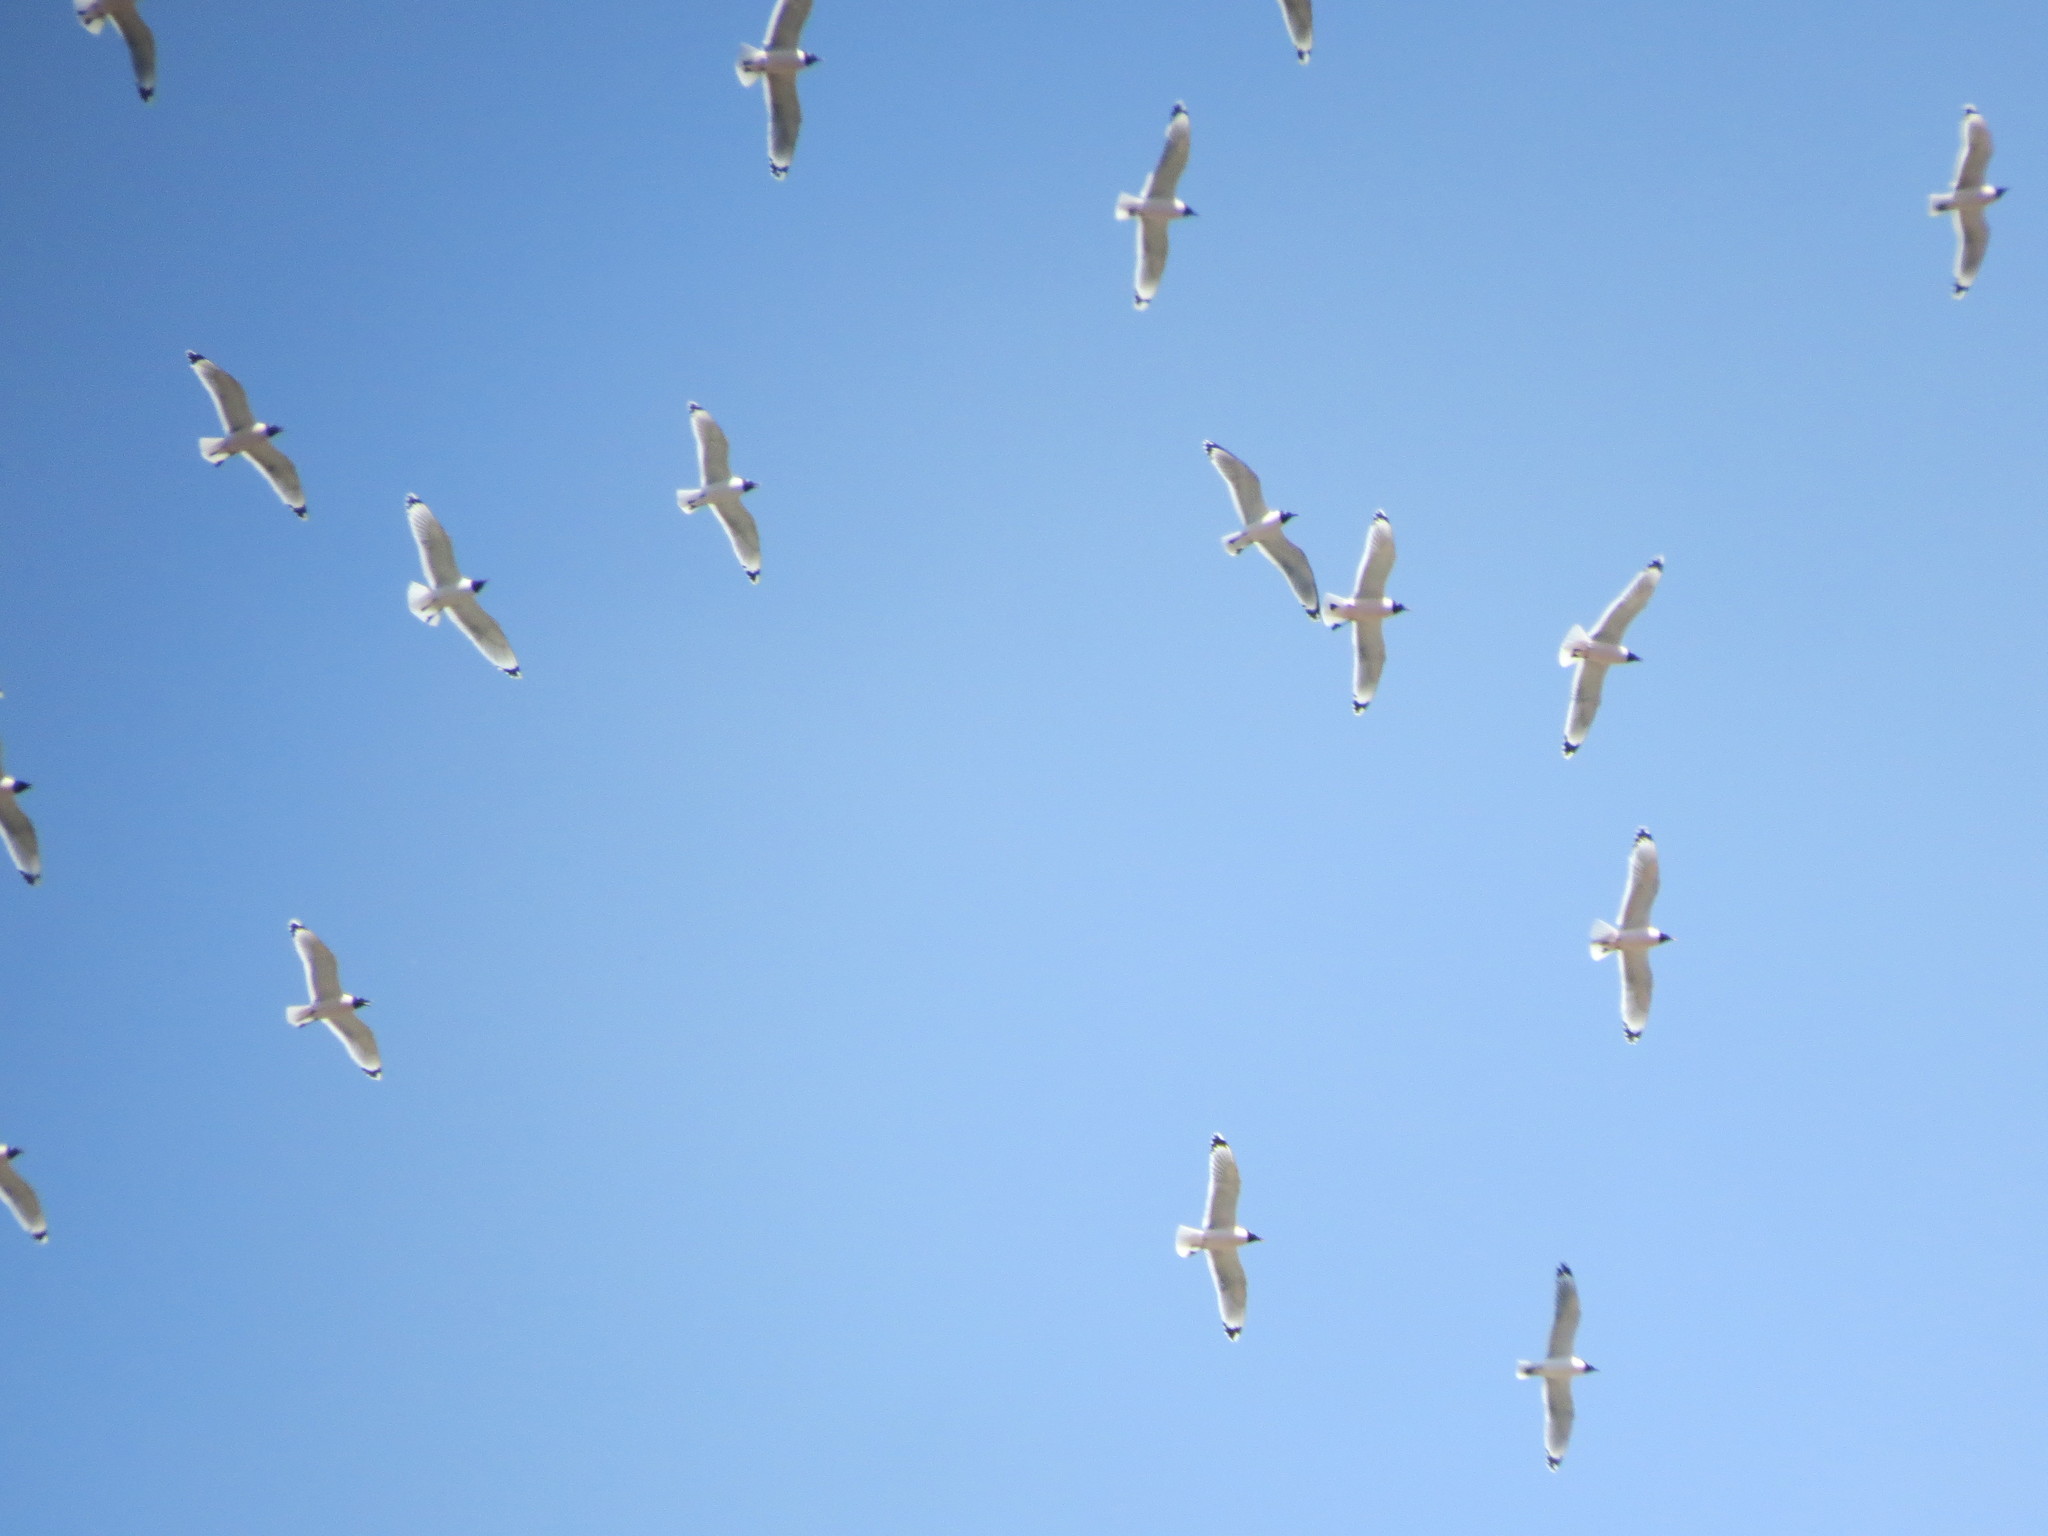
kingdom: Animalia
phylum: Chordata
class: Aves
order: Charadriiformes
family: Laridae
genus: Leucophaeus
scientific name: Leucophaeus pipixcan
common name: Franklin's gull
